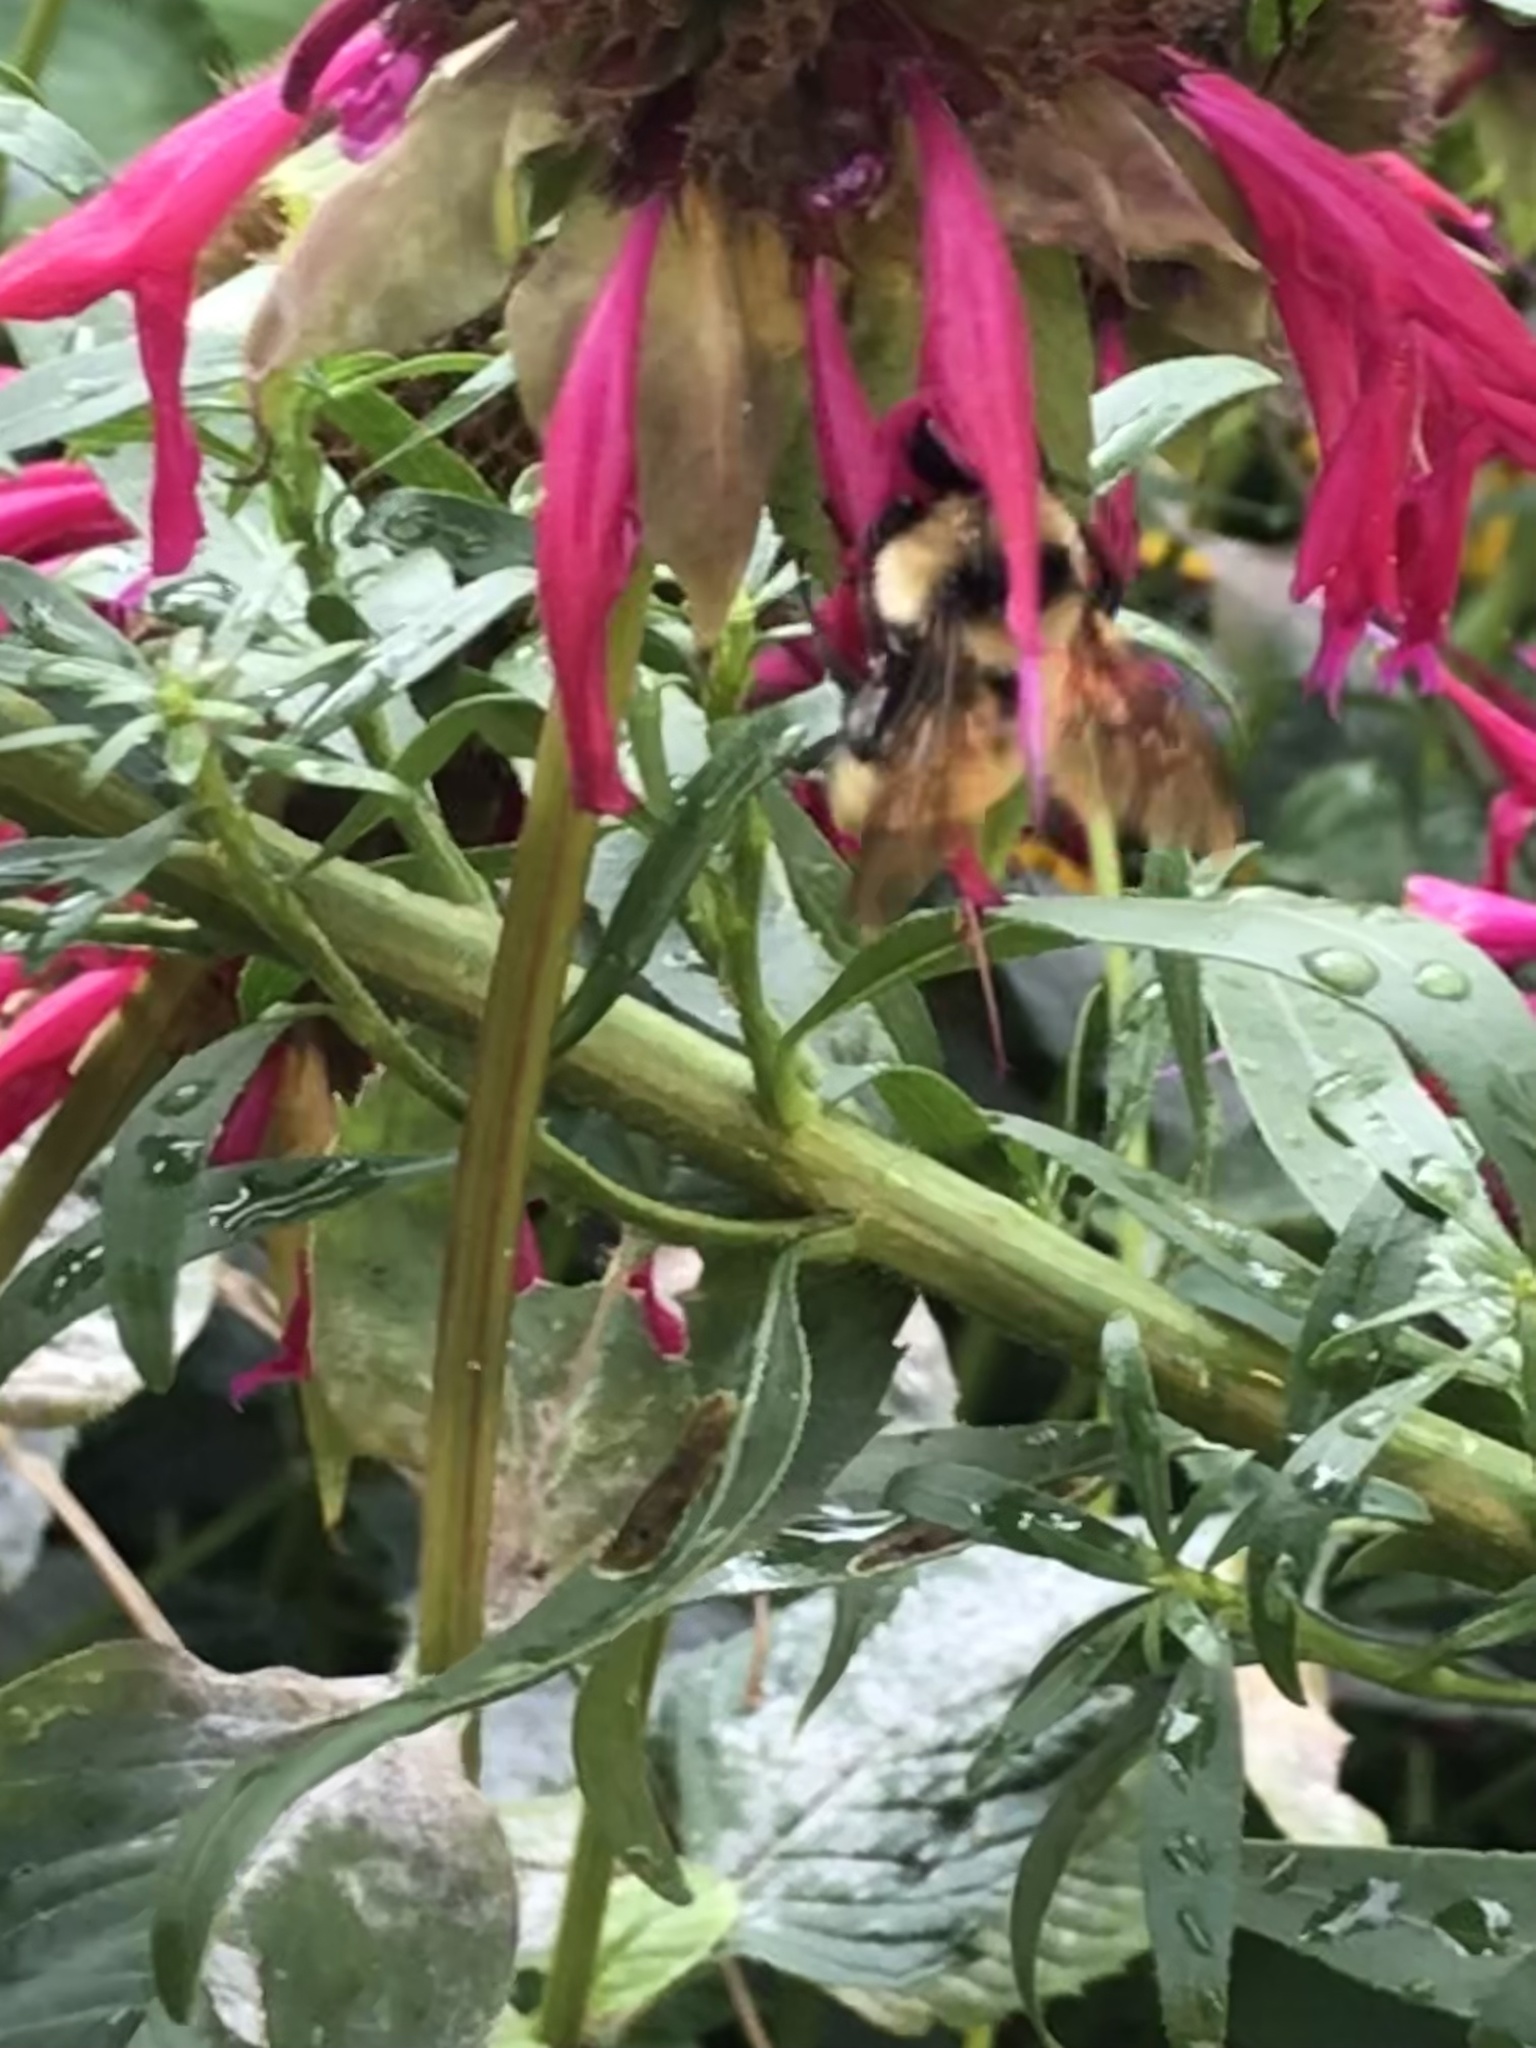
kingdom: Animalia
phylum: Arthropoda
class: Insecta
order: Hymenoptera
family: Apidae
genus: Bombus
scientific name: Bombus fervidus
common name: Yellow bumble bee
